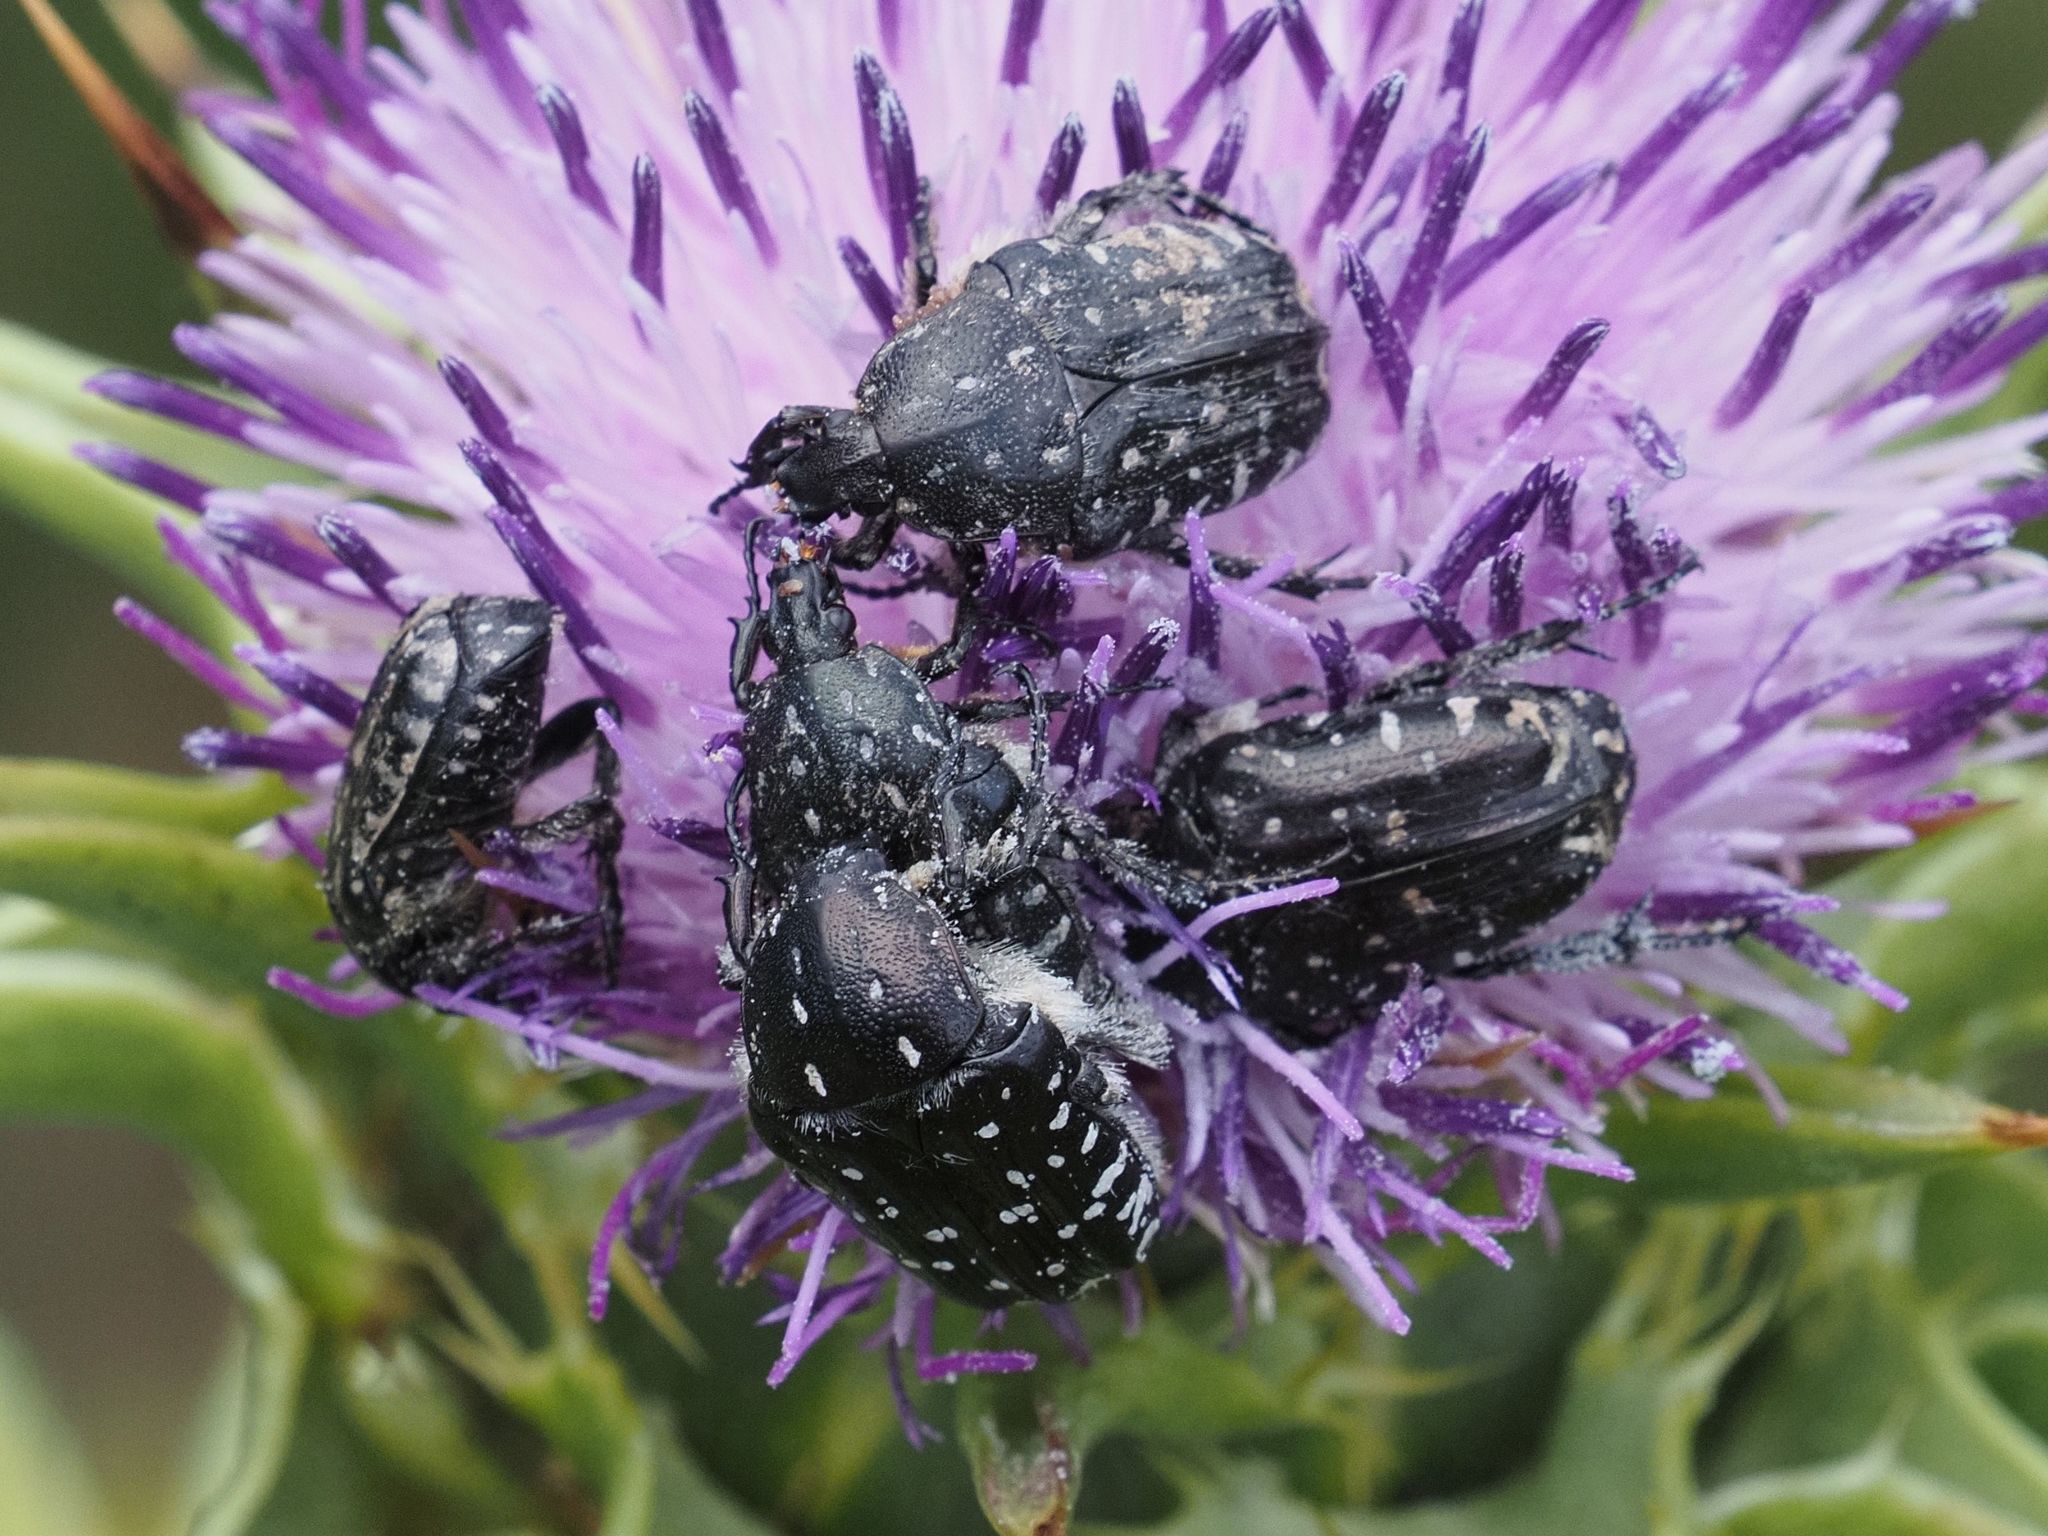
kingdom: Animalia
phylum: Arthropoda
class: Insecta
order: Coleoptera
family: Scarabaeidae
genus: Oxythyrea
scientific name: Oxythyrea funesta
